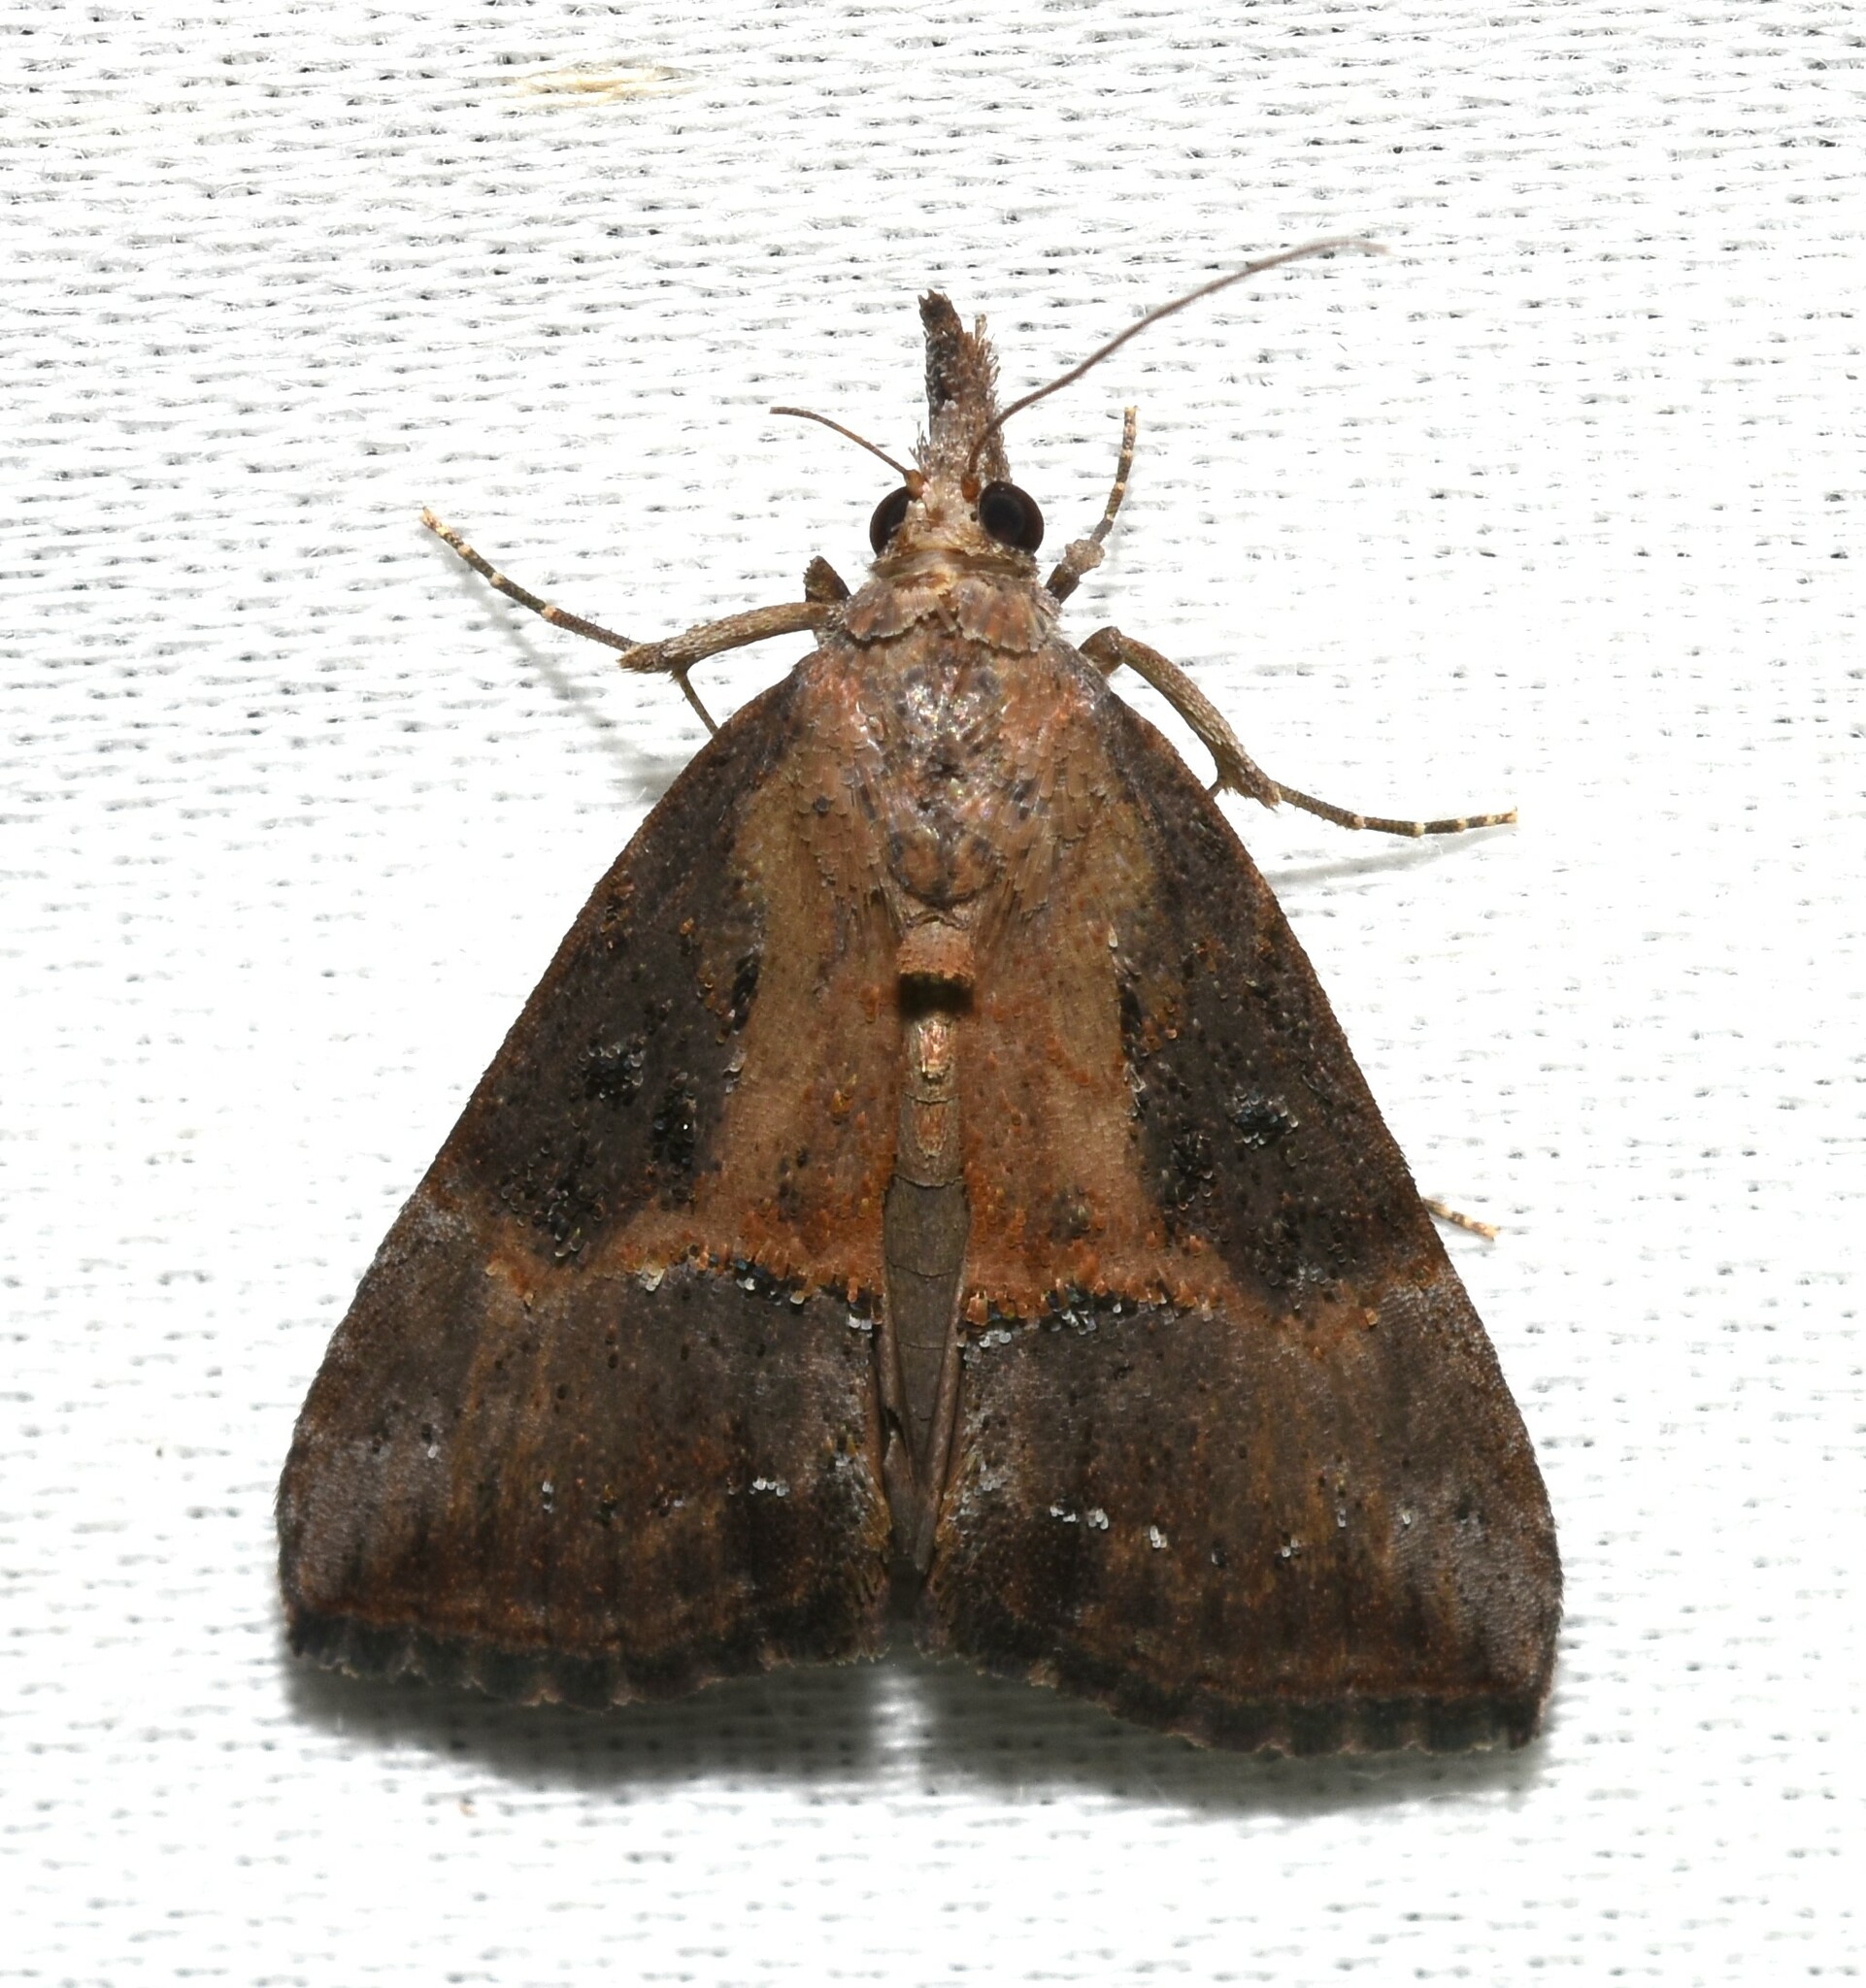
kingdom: Animalia
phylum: Arthropoda
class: Insecta
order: Lepidoptera
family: Erebidae
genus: Hypena
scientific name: Hypena scabra
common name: Green cloverworm
